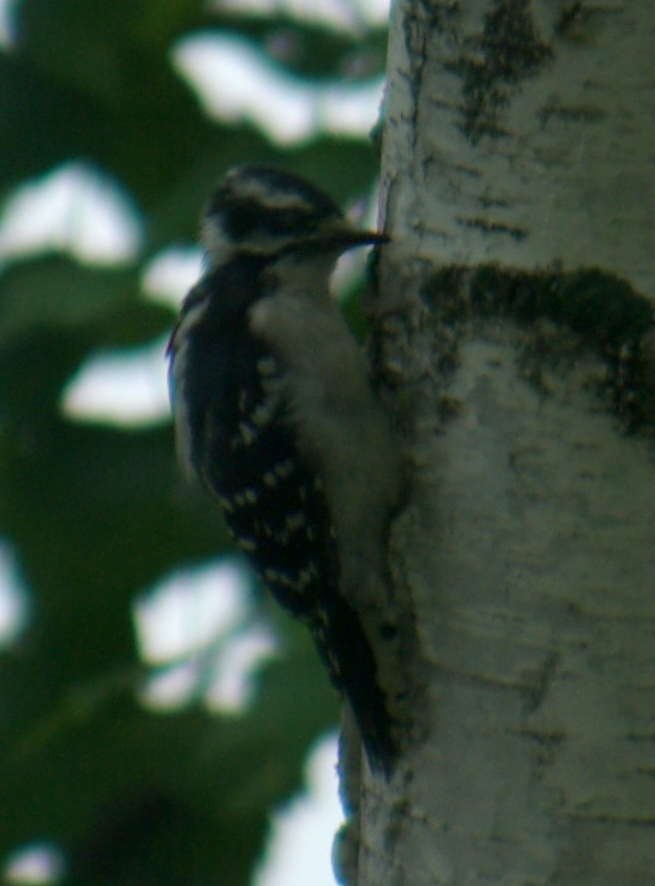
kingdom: Animalia
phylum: Chordata
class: Aves
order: Piciformes
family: Picidae
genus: Dryobates
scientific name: Dryobates pubescens
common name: Downy woodpecker
